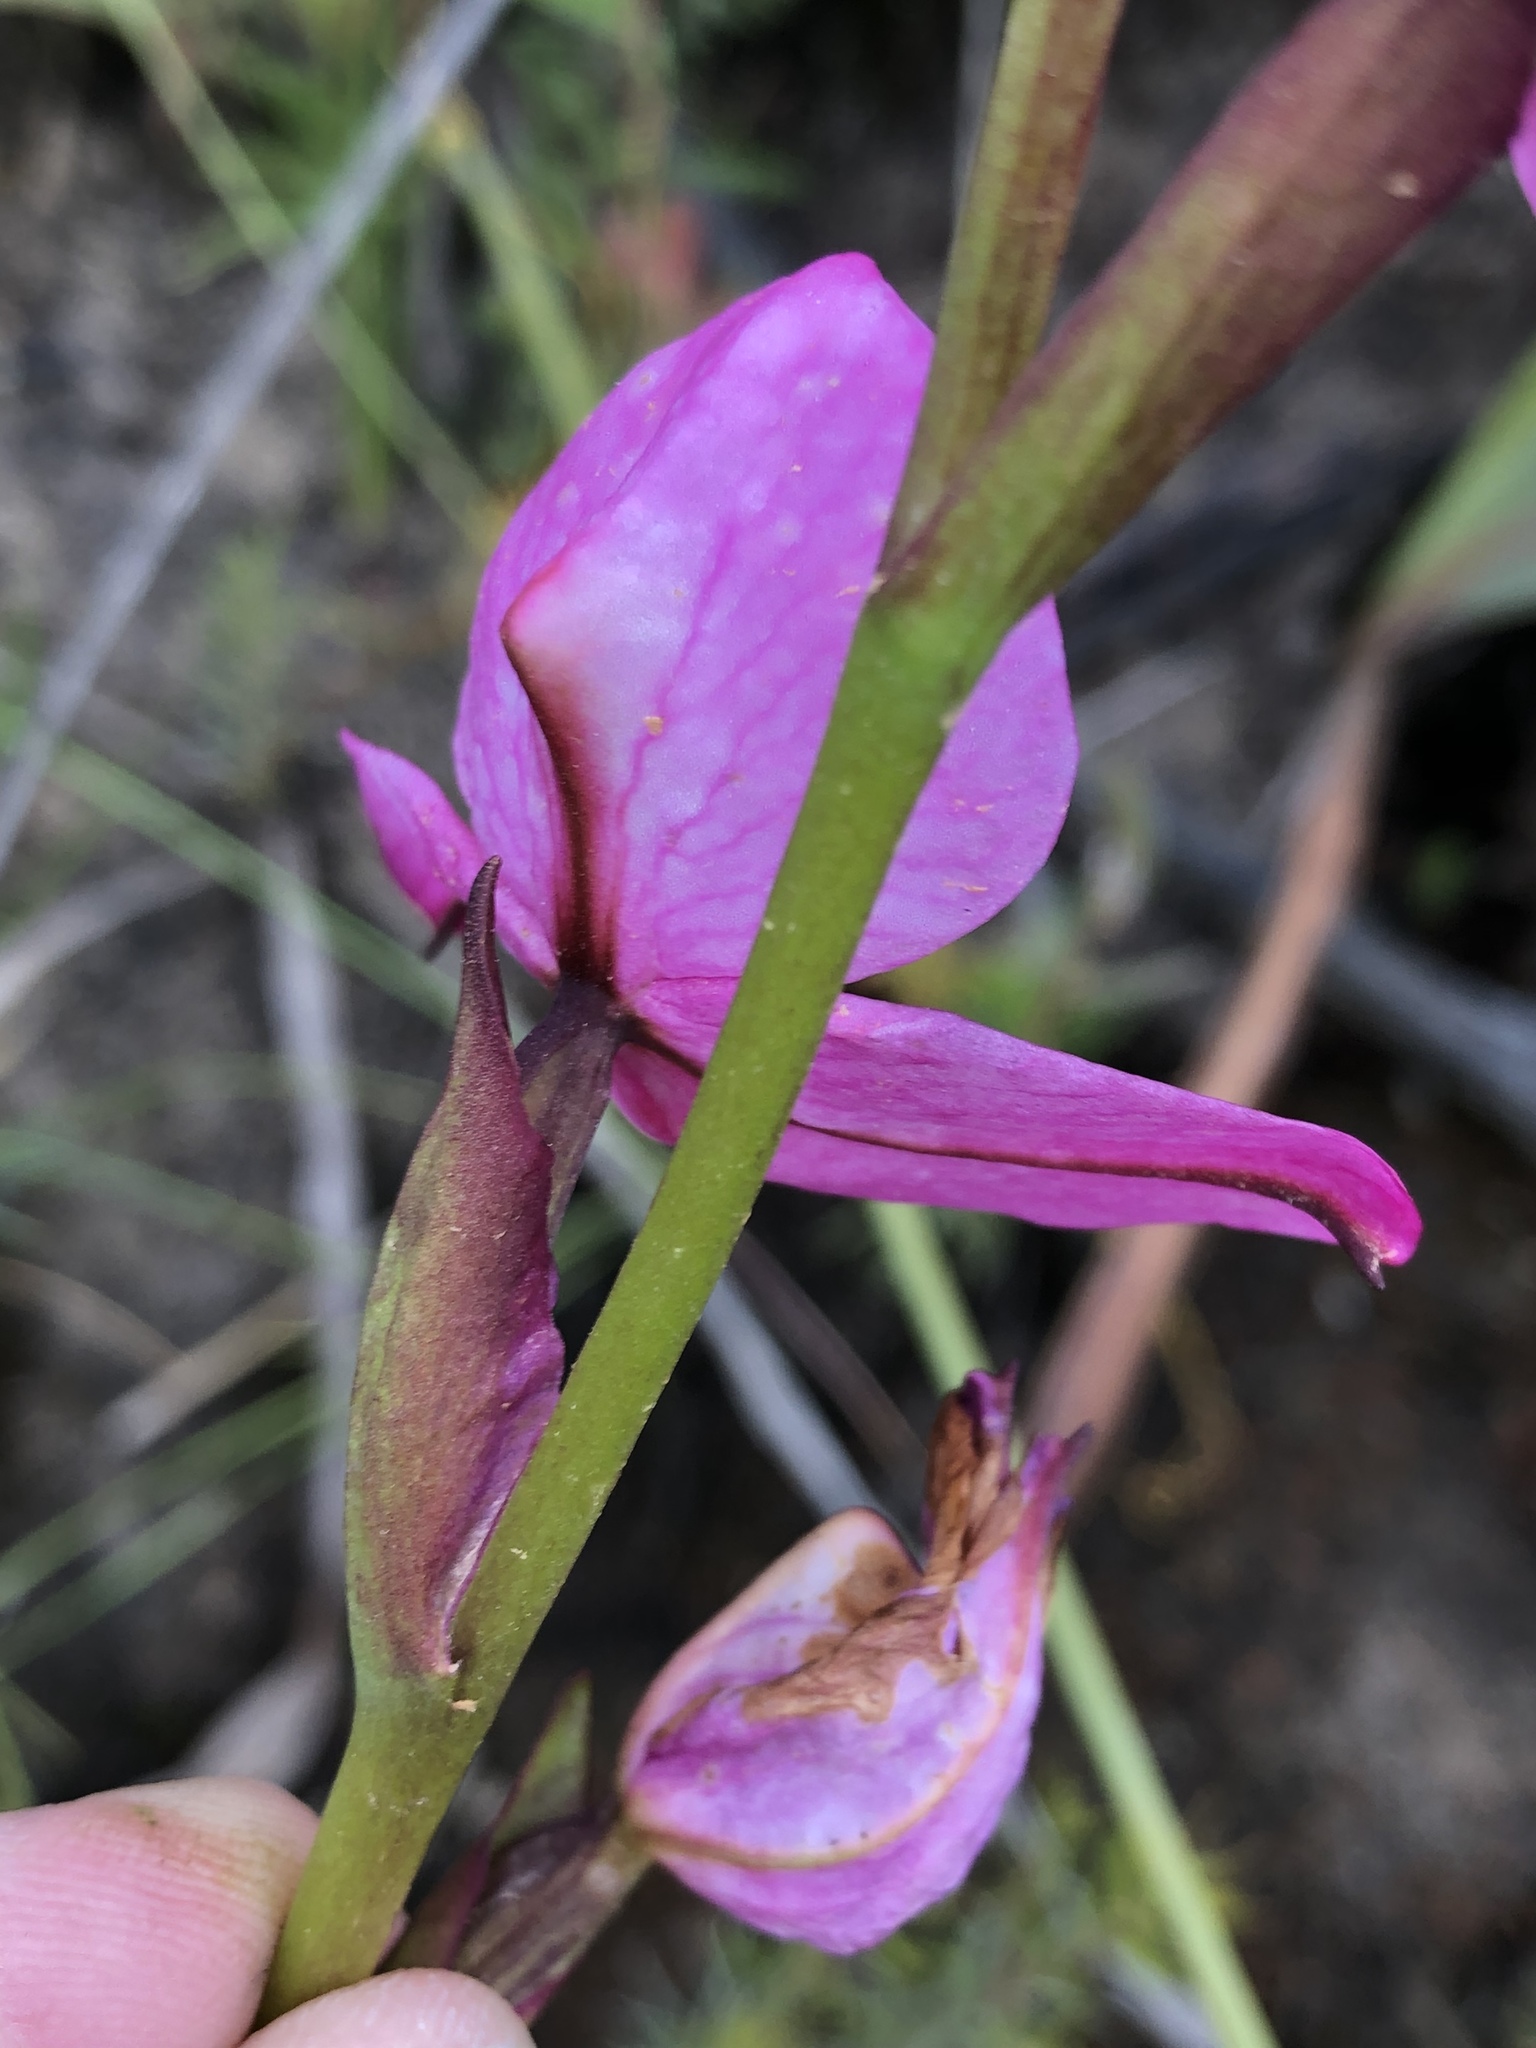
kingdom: Plantae
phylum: Tracheophyta
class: Liliopsida
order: Asparagales
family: Orchidaceae
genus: Disa
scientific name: Disa racemosa
